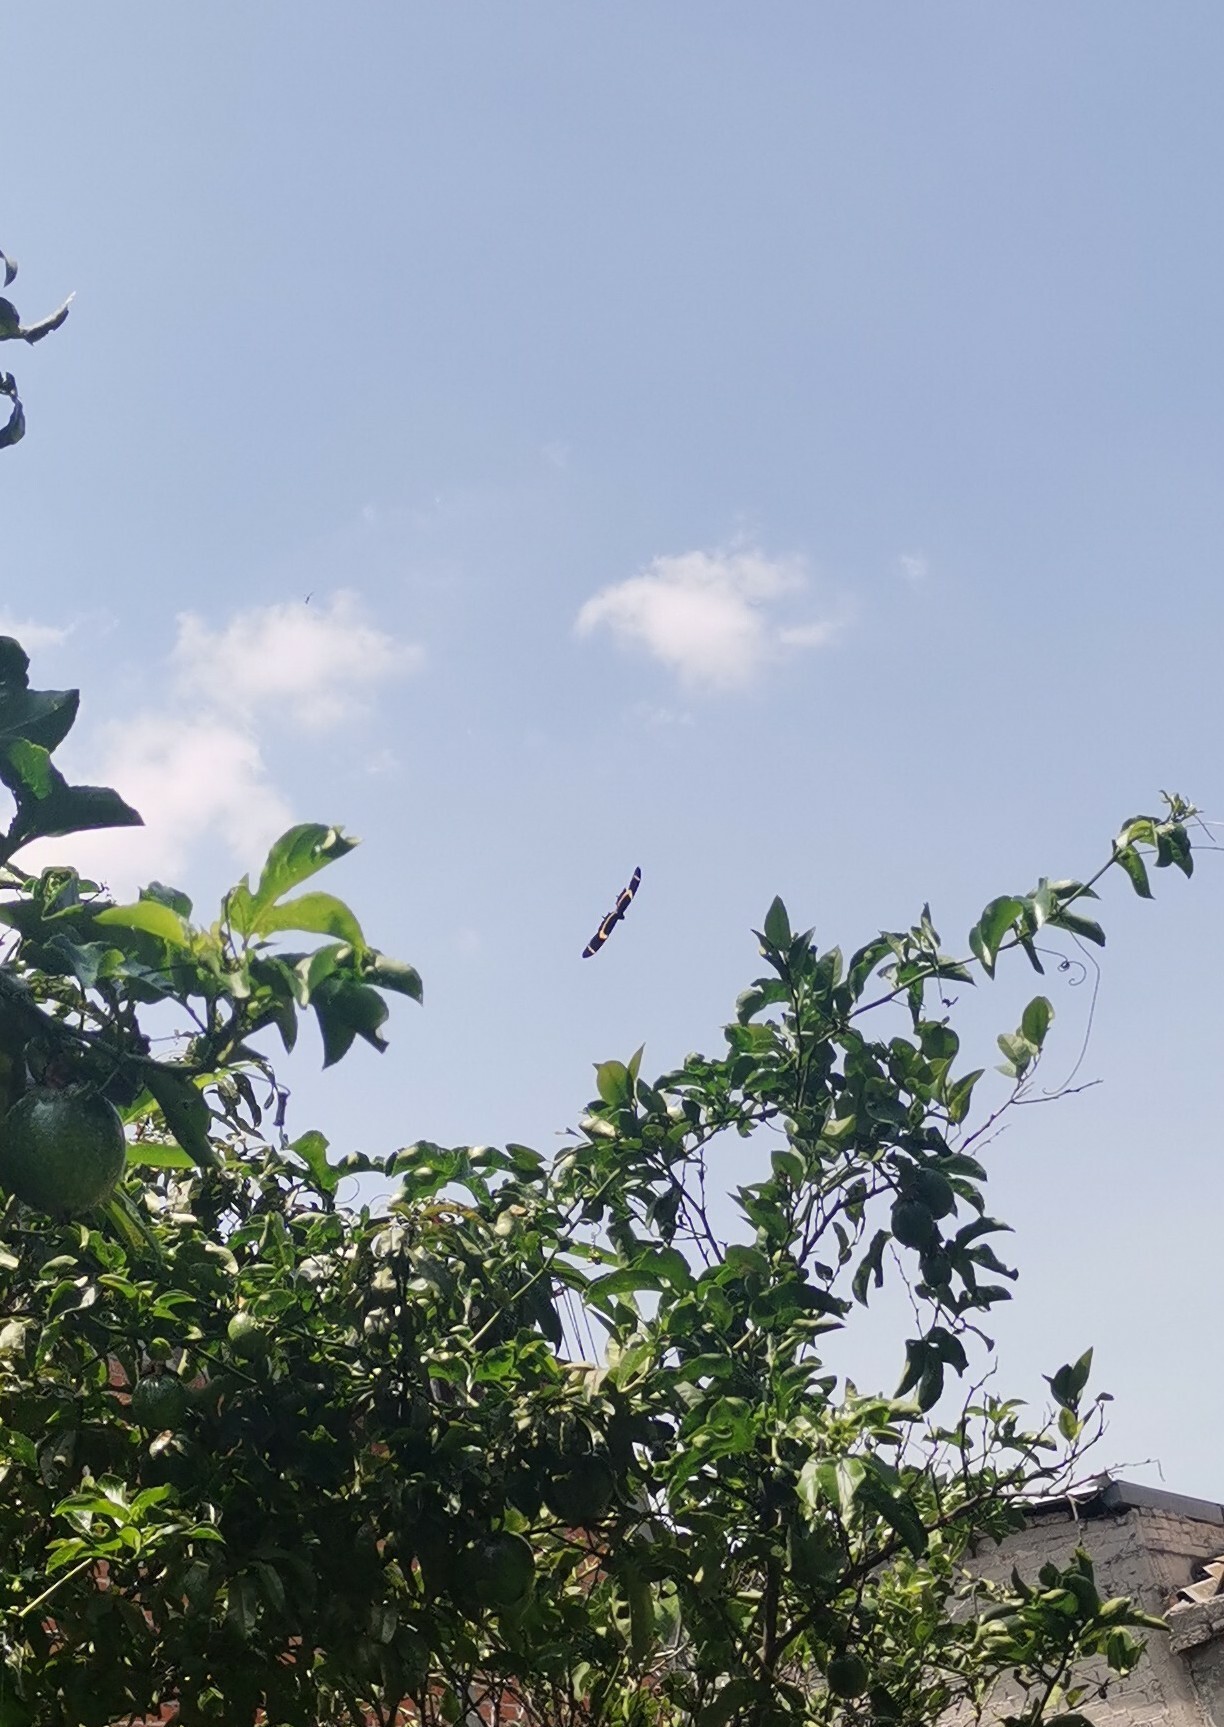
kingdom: Animalia
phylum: Arthropoda
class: Insecta
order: Lepidoptera
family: Papilionidae
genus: Papilio
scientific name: Papilio garamas
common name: Magnificent swallowtail
